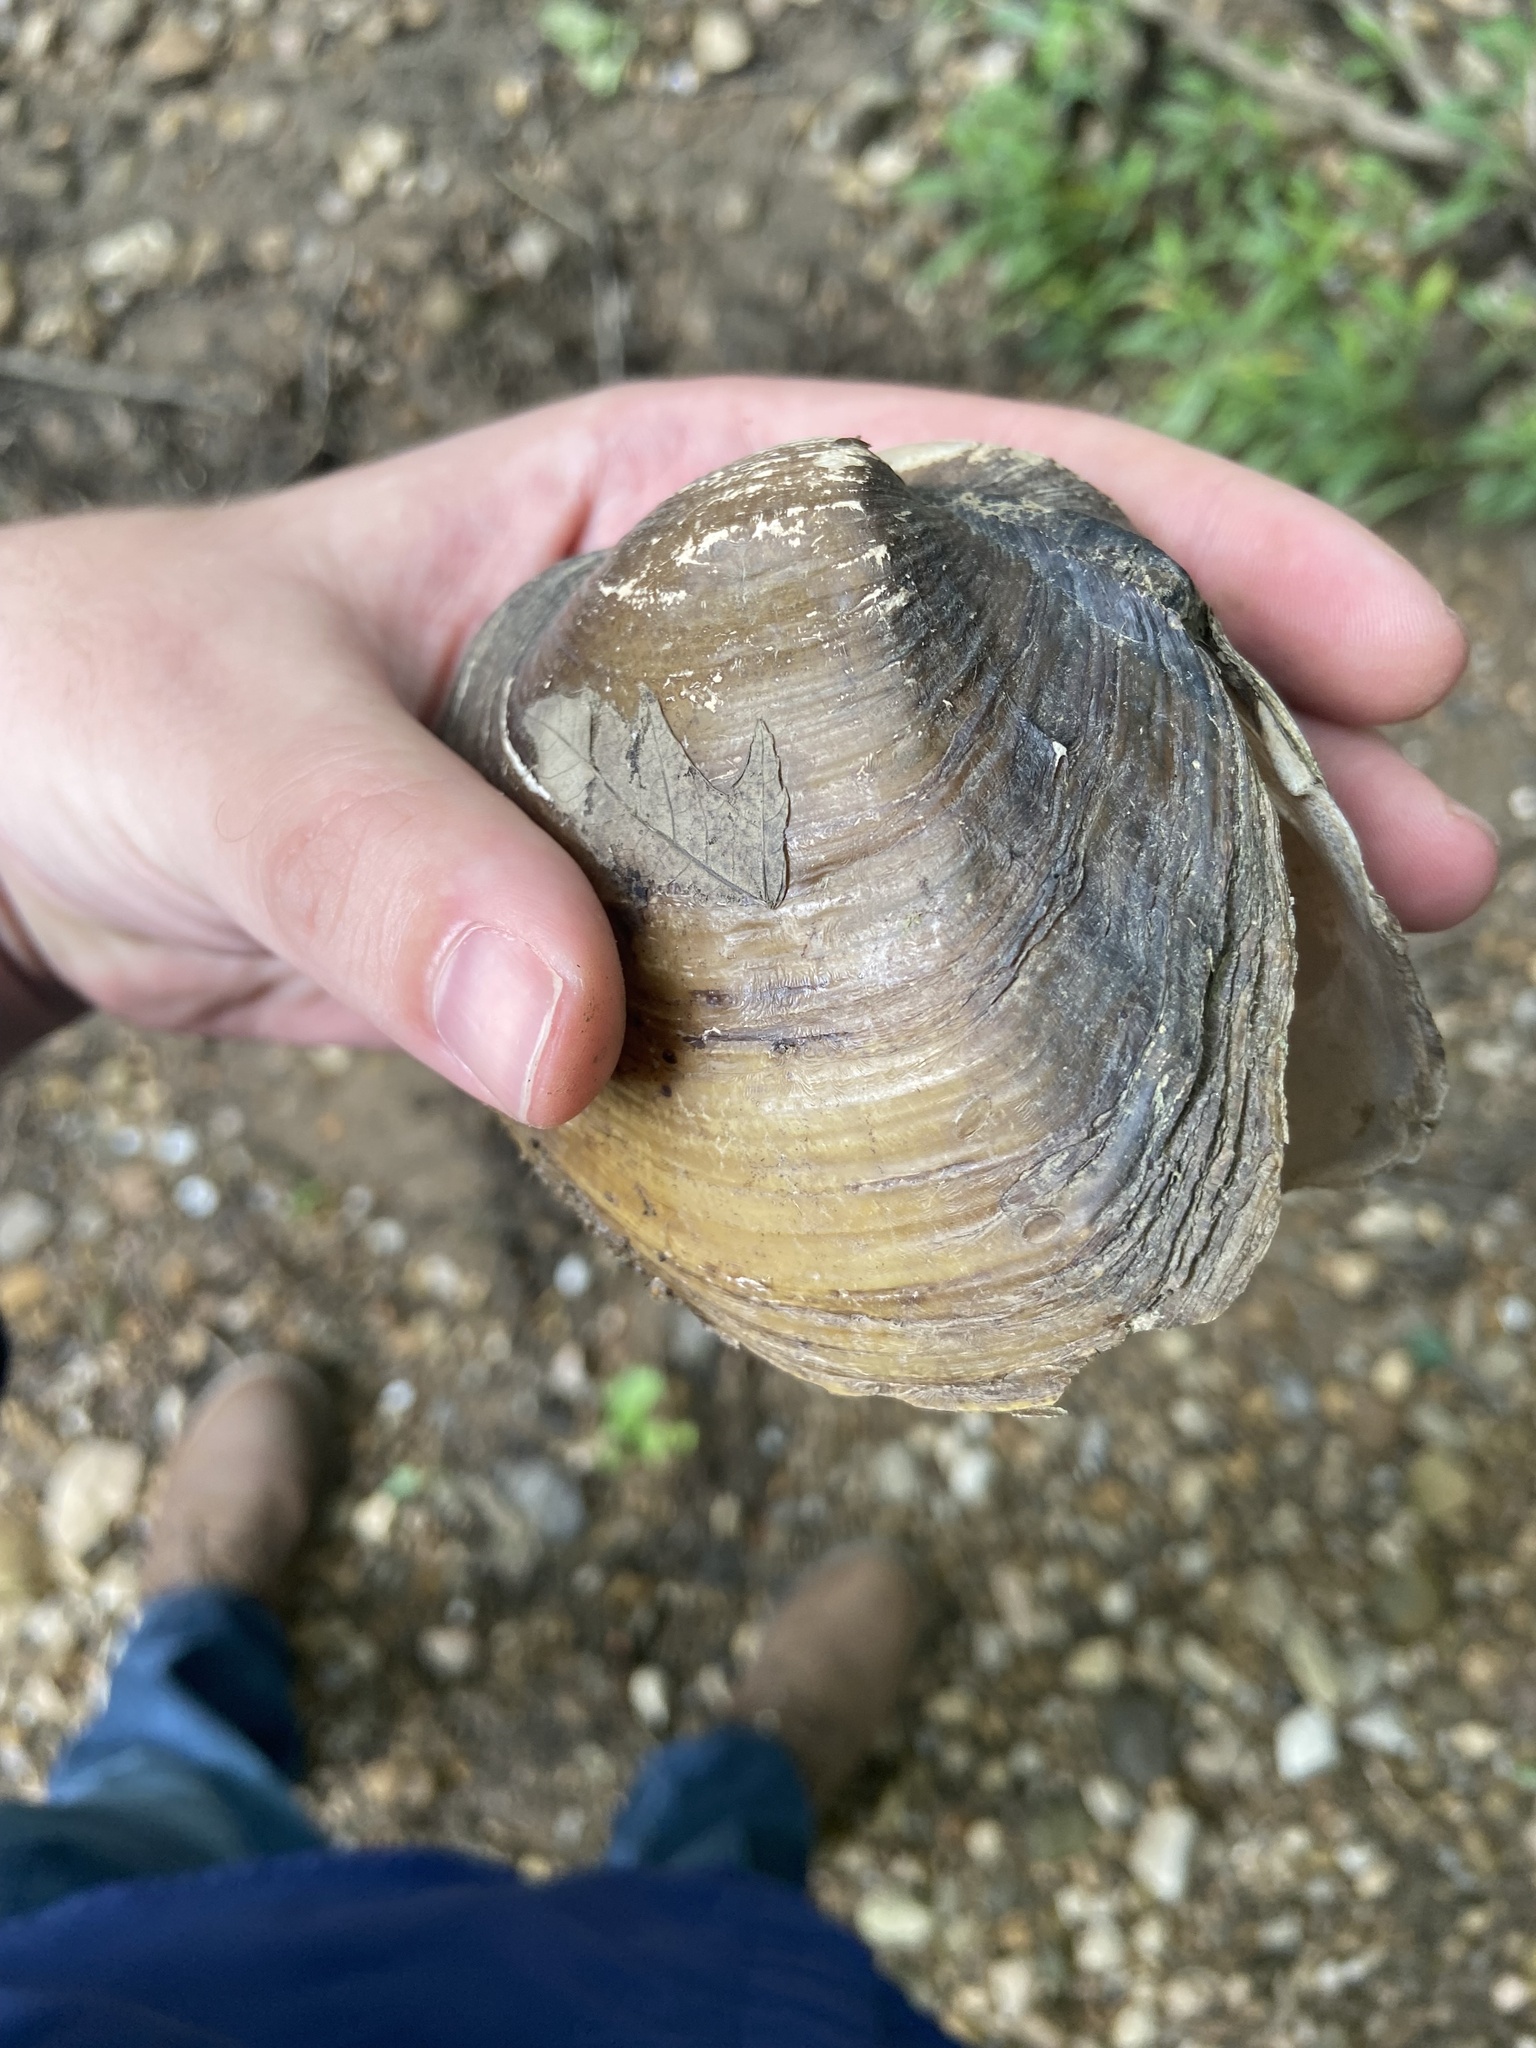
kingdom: Animalia
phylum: Mollusca
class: Bivalvia
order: Unionida
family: Unionidae
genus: Lampsilis
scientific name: Lampsilis ovata
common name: Pocketbook
